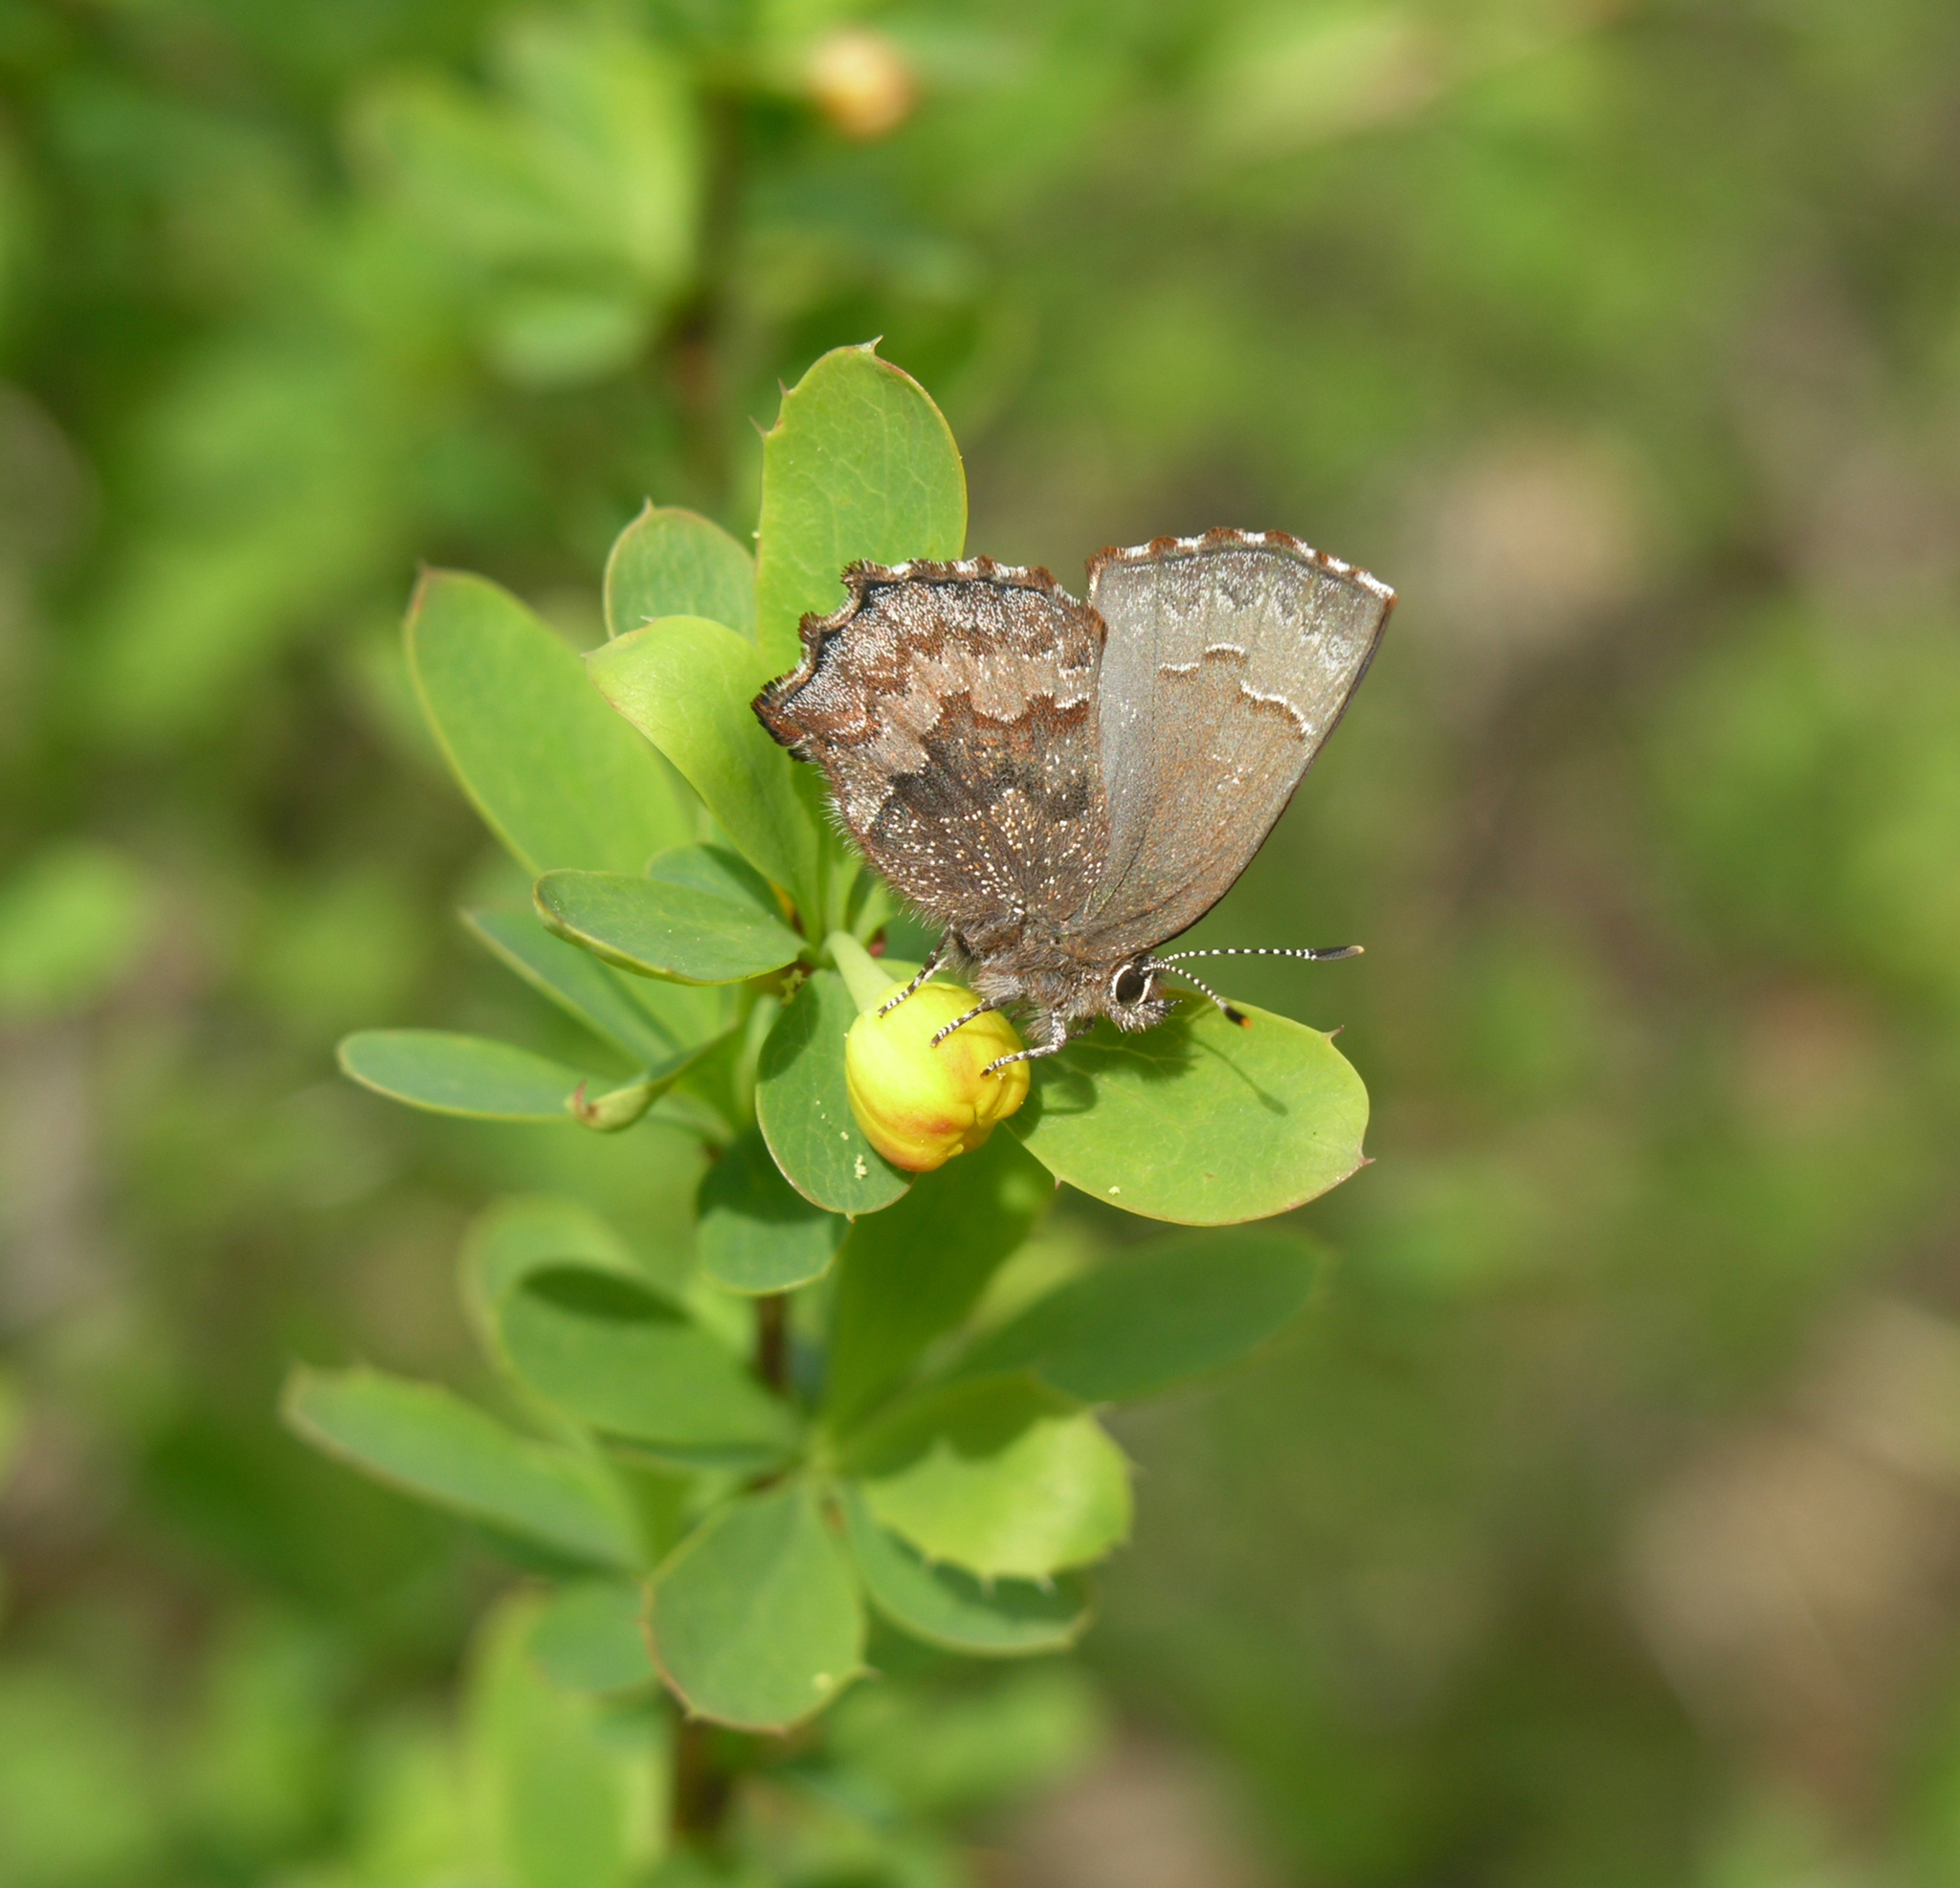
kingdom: Plantae
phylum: Tracheophyta
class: Magnoliopsida
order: Ranunculales
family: Berberidaceae
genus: Berberis
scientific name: Berberis sibirica
